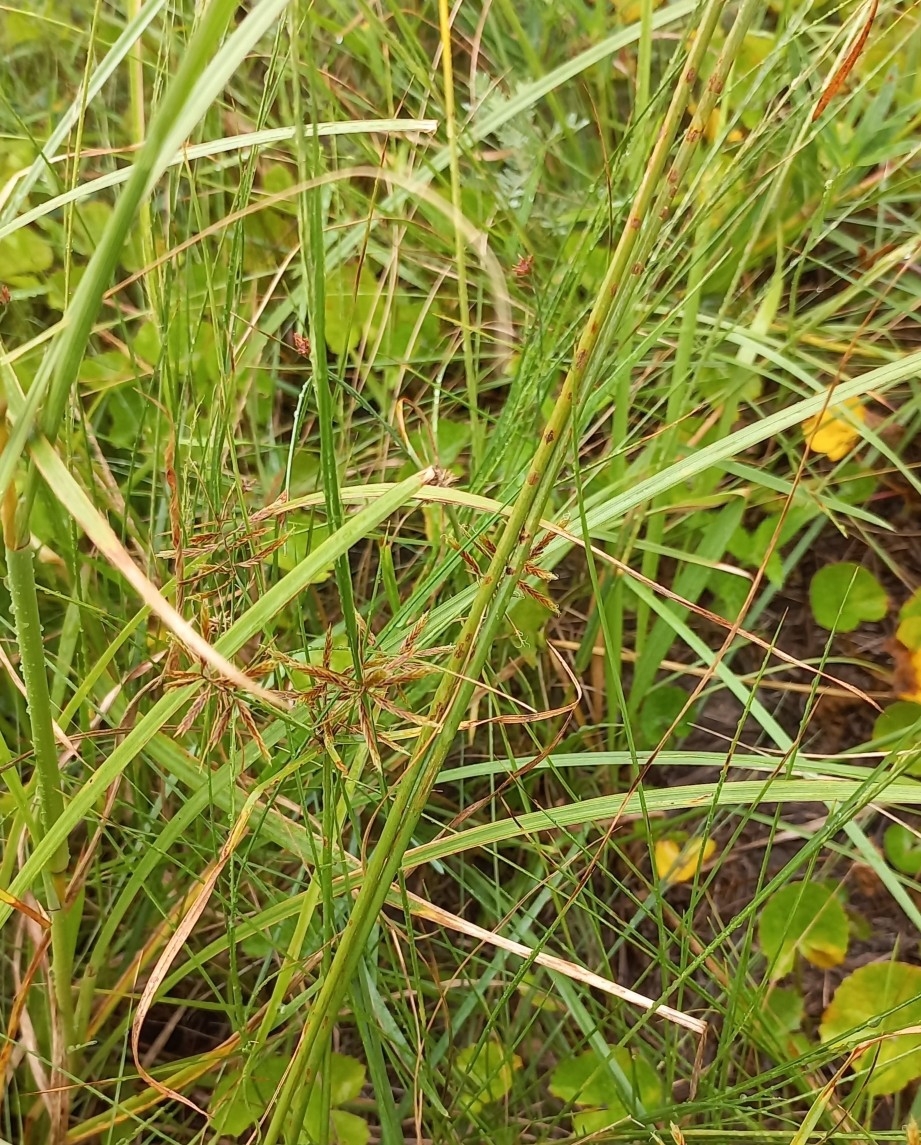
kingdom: Plantae
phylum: Tracheophyta
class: Liliopsida
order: Poales
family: Cyperaceae
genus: Cyperus
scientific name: Cyperus intactus
